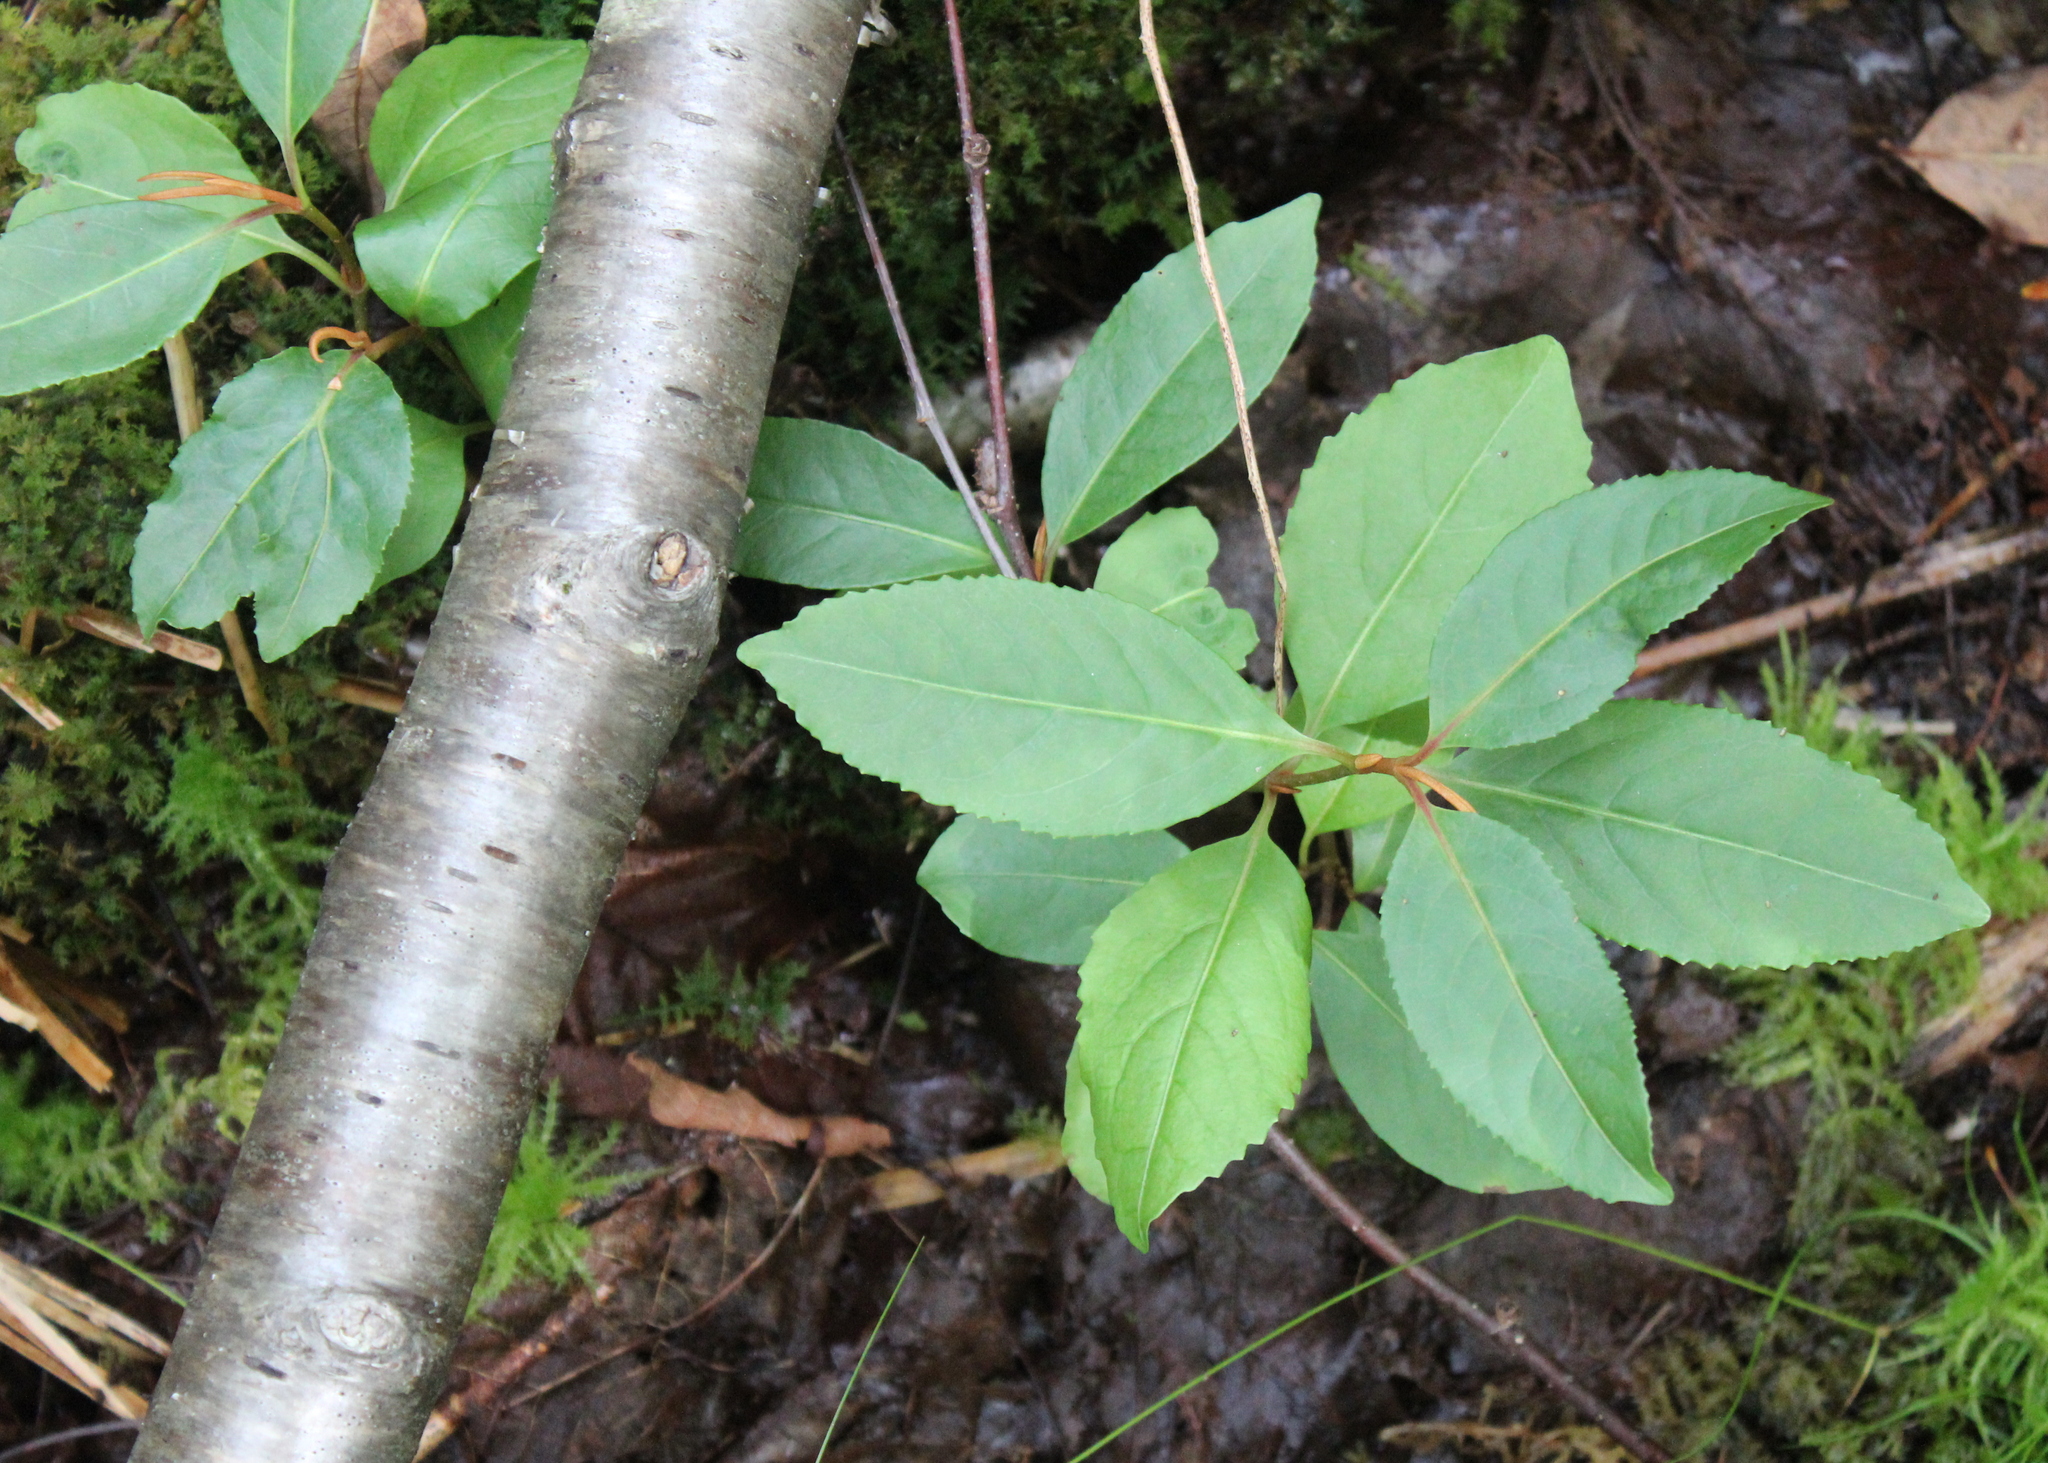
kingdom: Plantae
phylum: Tracheophyta
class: Magnoliopsida
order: Dipsacales
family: Viburnaceae
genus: Viburnum
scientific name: Viburnum cassinoides
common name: Swamp haw
